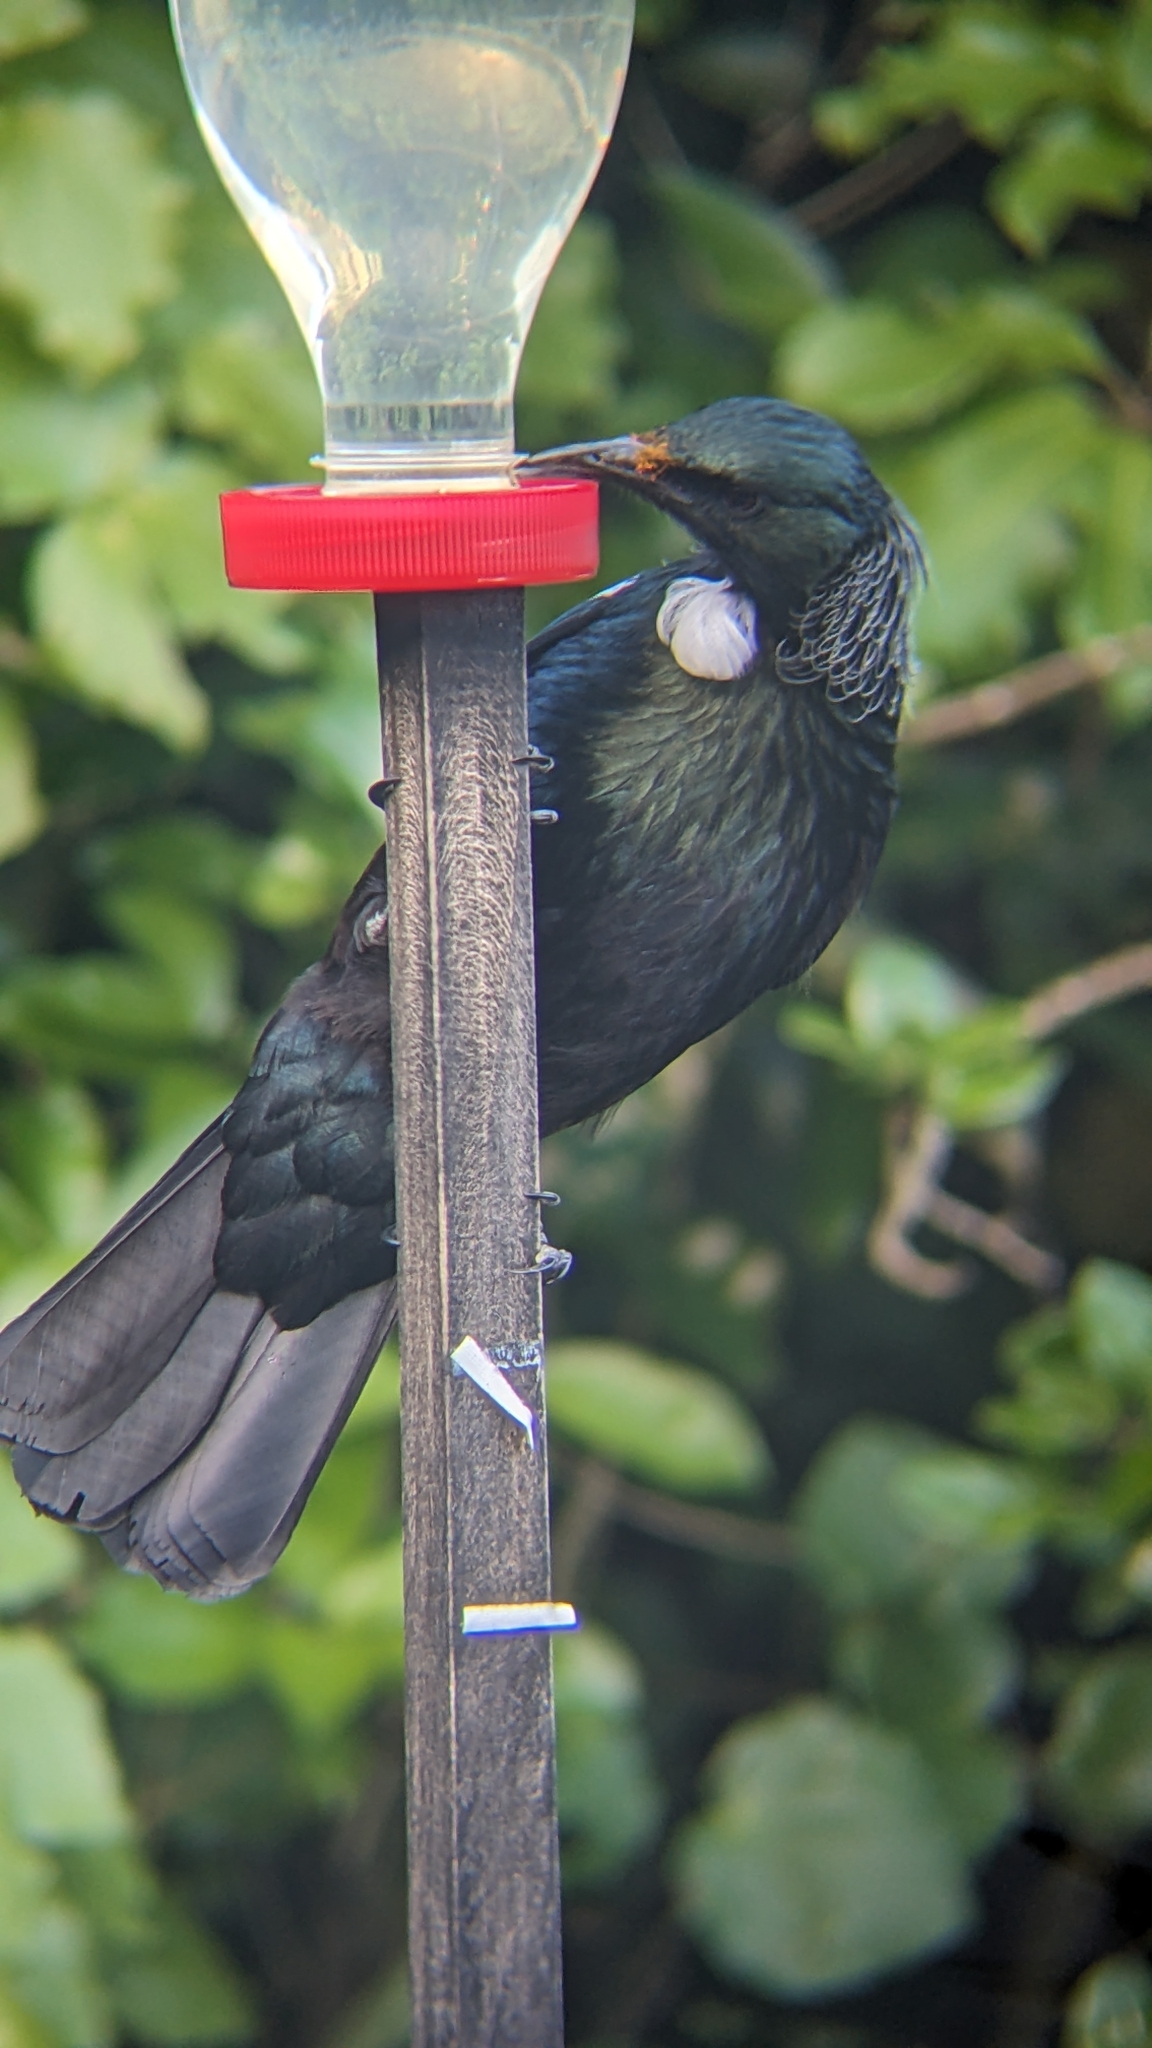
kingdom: Animalia
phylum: Chordata
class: Aves
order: Passeriformes
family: Meliphagidae
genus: Prosthemadera
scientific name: Prosthemadera novaeseelandiae
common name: Tui
